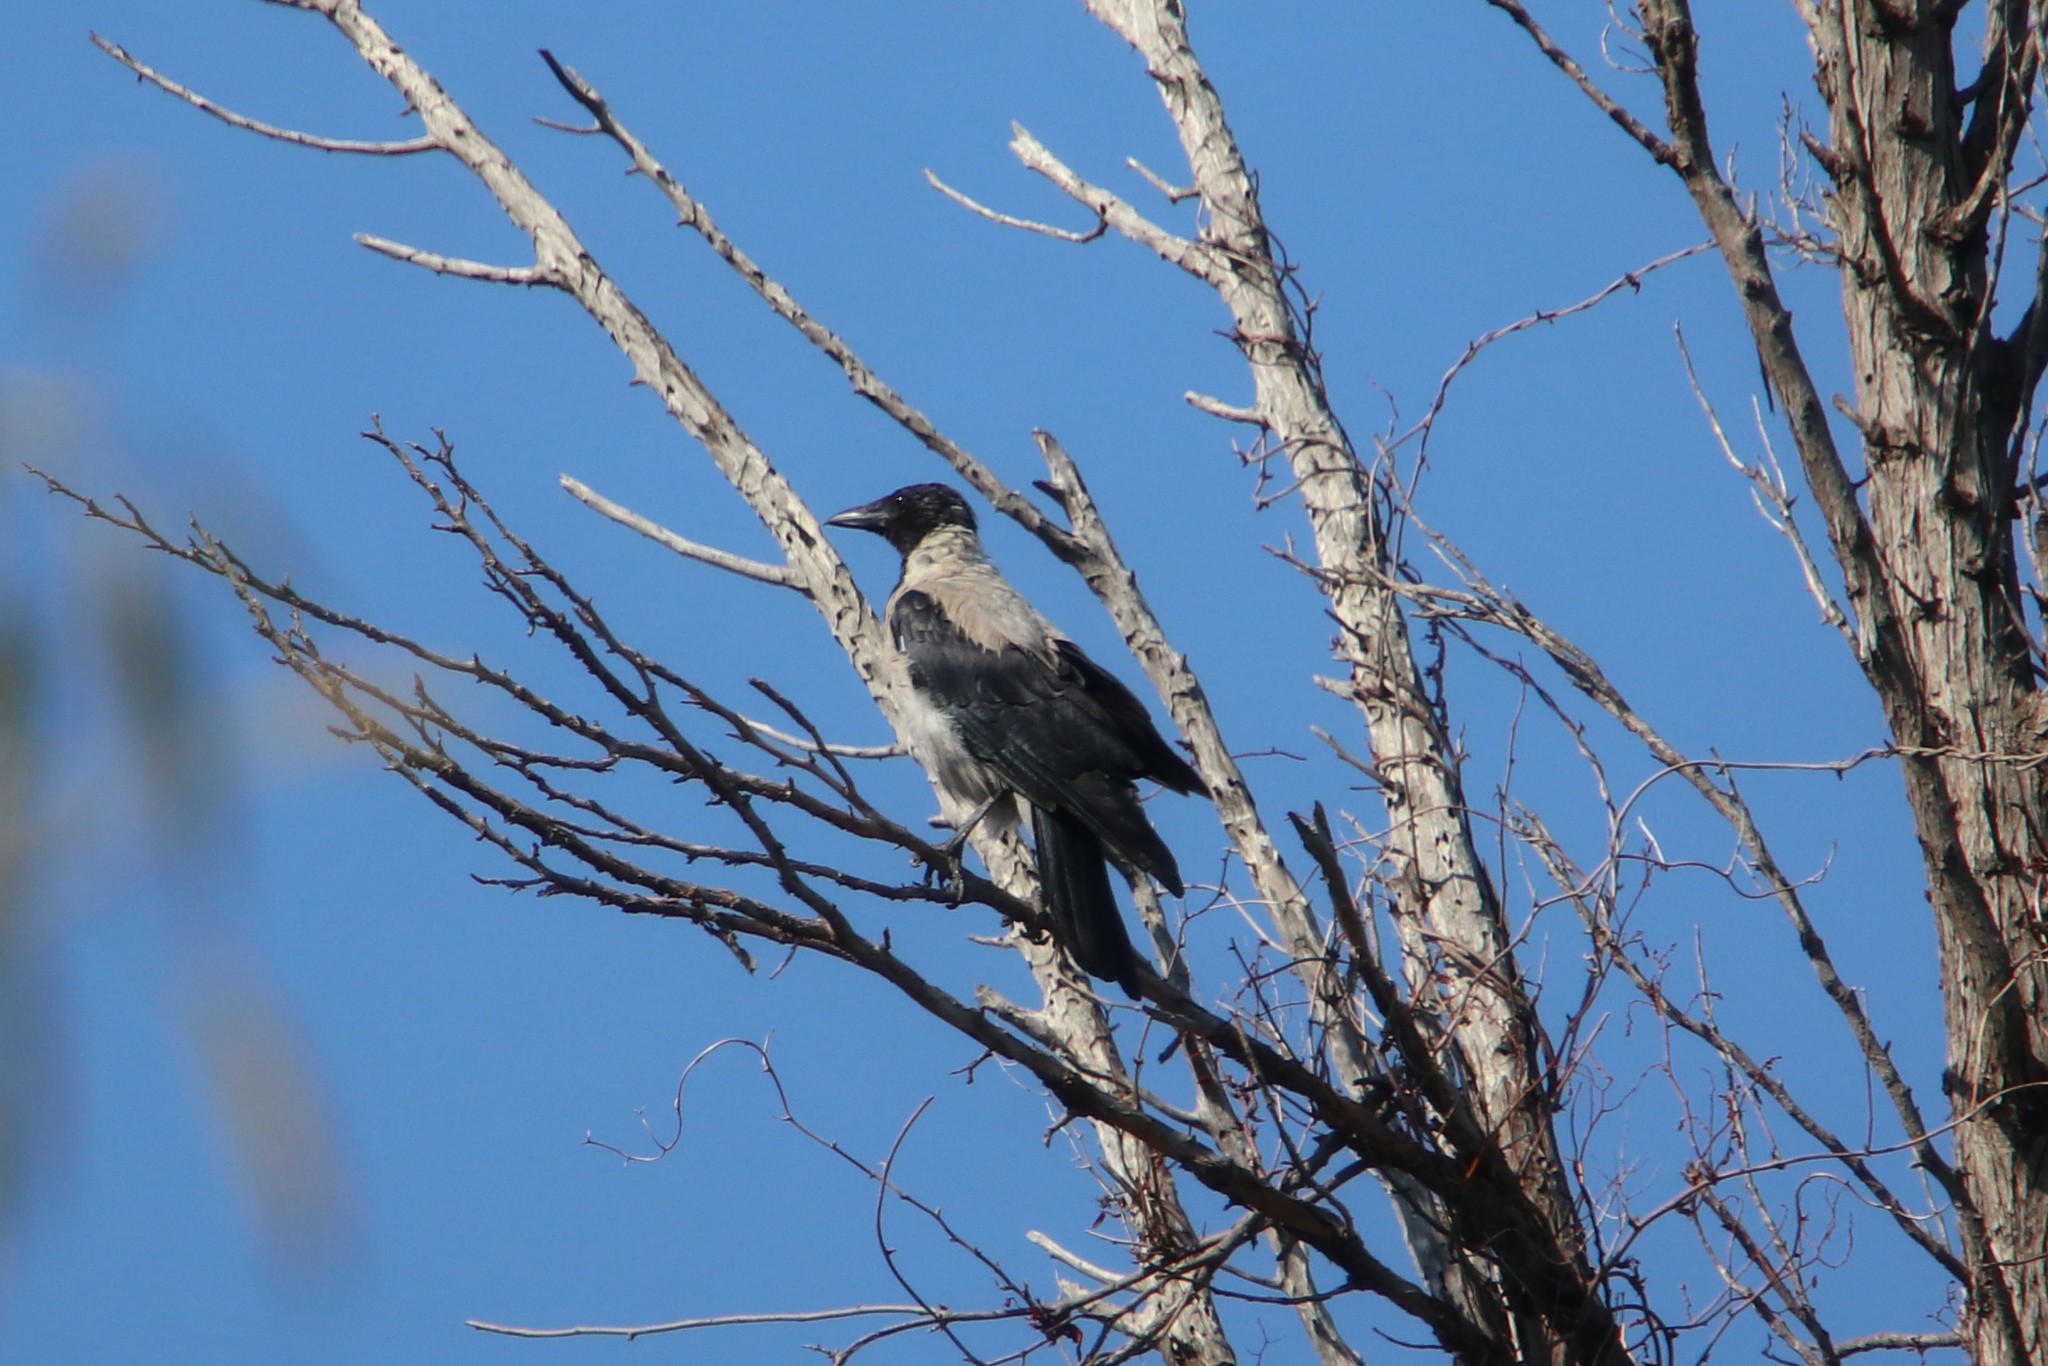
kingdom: Animalia
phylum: Chordata
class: Aves
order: Passeriformes
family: Corvidae
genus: Corvus
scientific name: Corvus cornix
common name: Hooded crow
